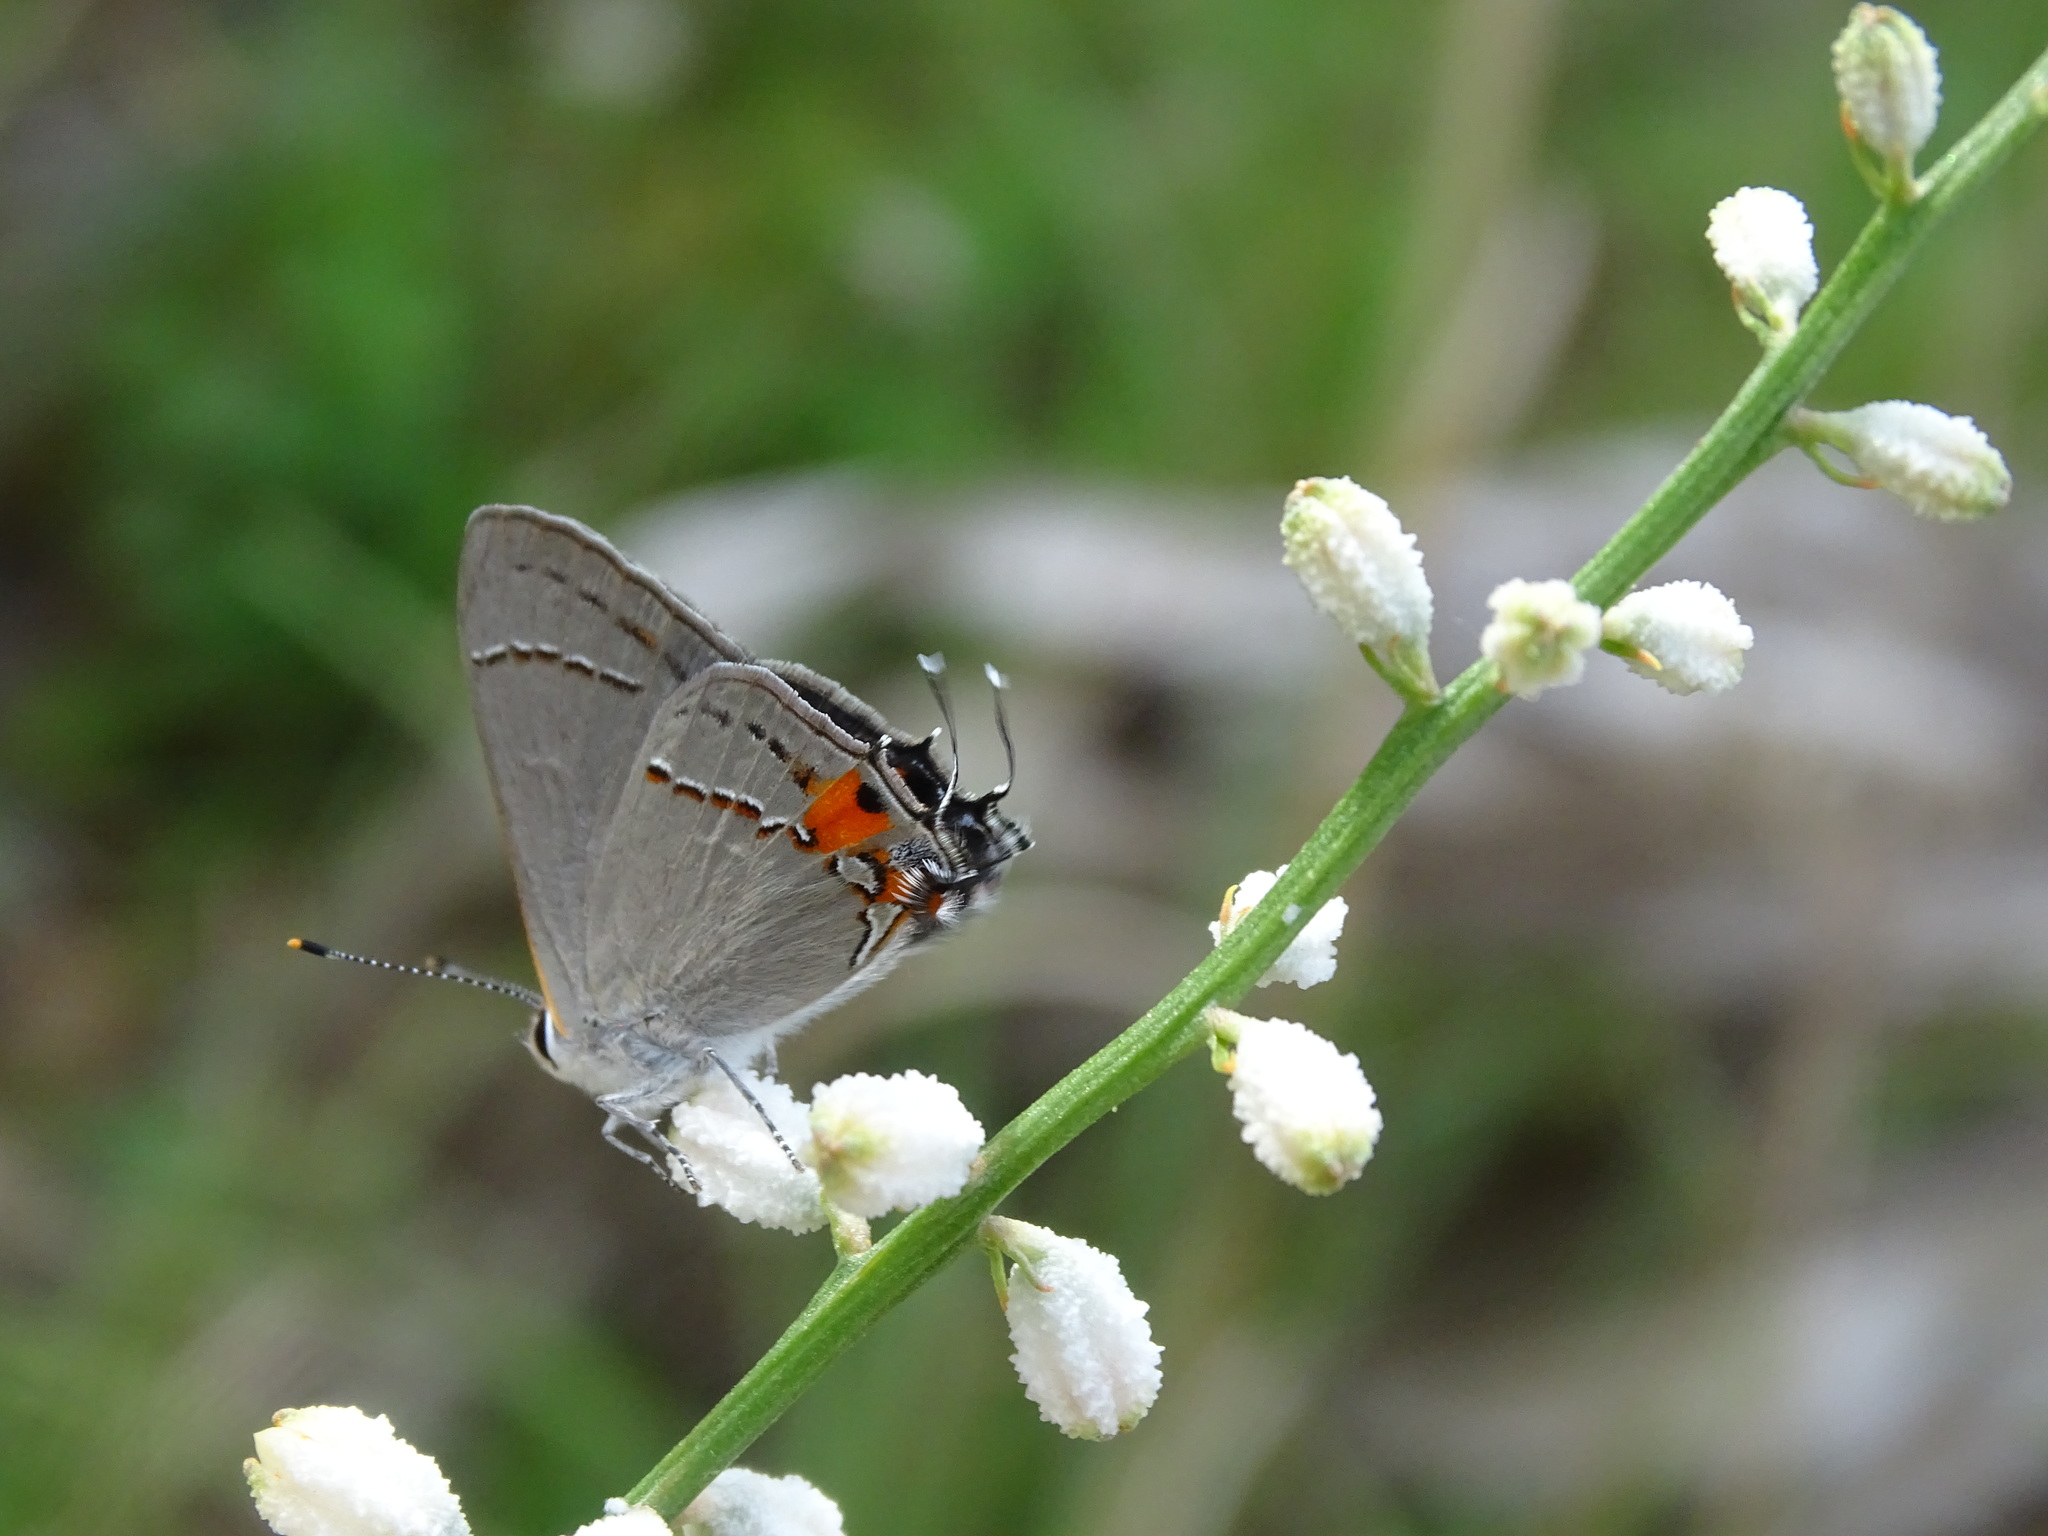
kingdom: Animalia
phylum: Arthropoda
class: Insecta
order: Lepidoptera
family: Lycaenidae
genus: Strymon
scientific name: Strymon melinus
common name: Gray hairstreak
